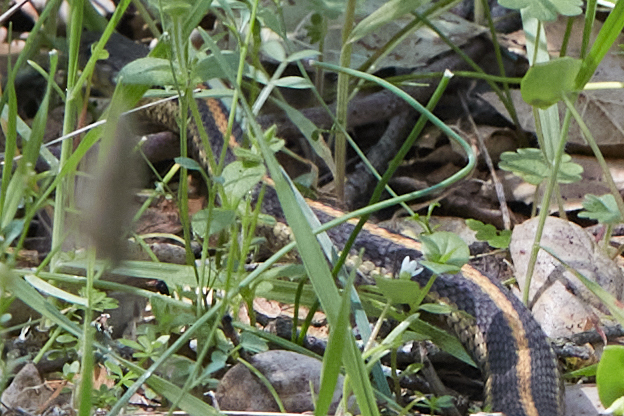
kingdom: Animalia
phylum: Chordata
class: Squamata
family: Colubridae
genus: Thamnophis
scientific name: Thamnophis atratus
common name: Pacific coast aquatic garter snake
